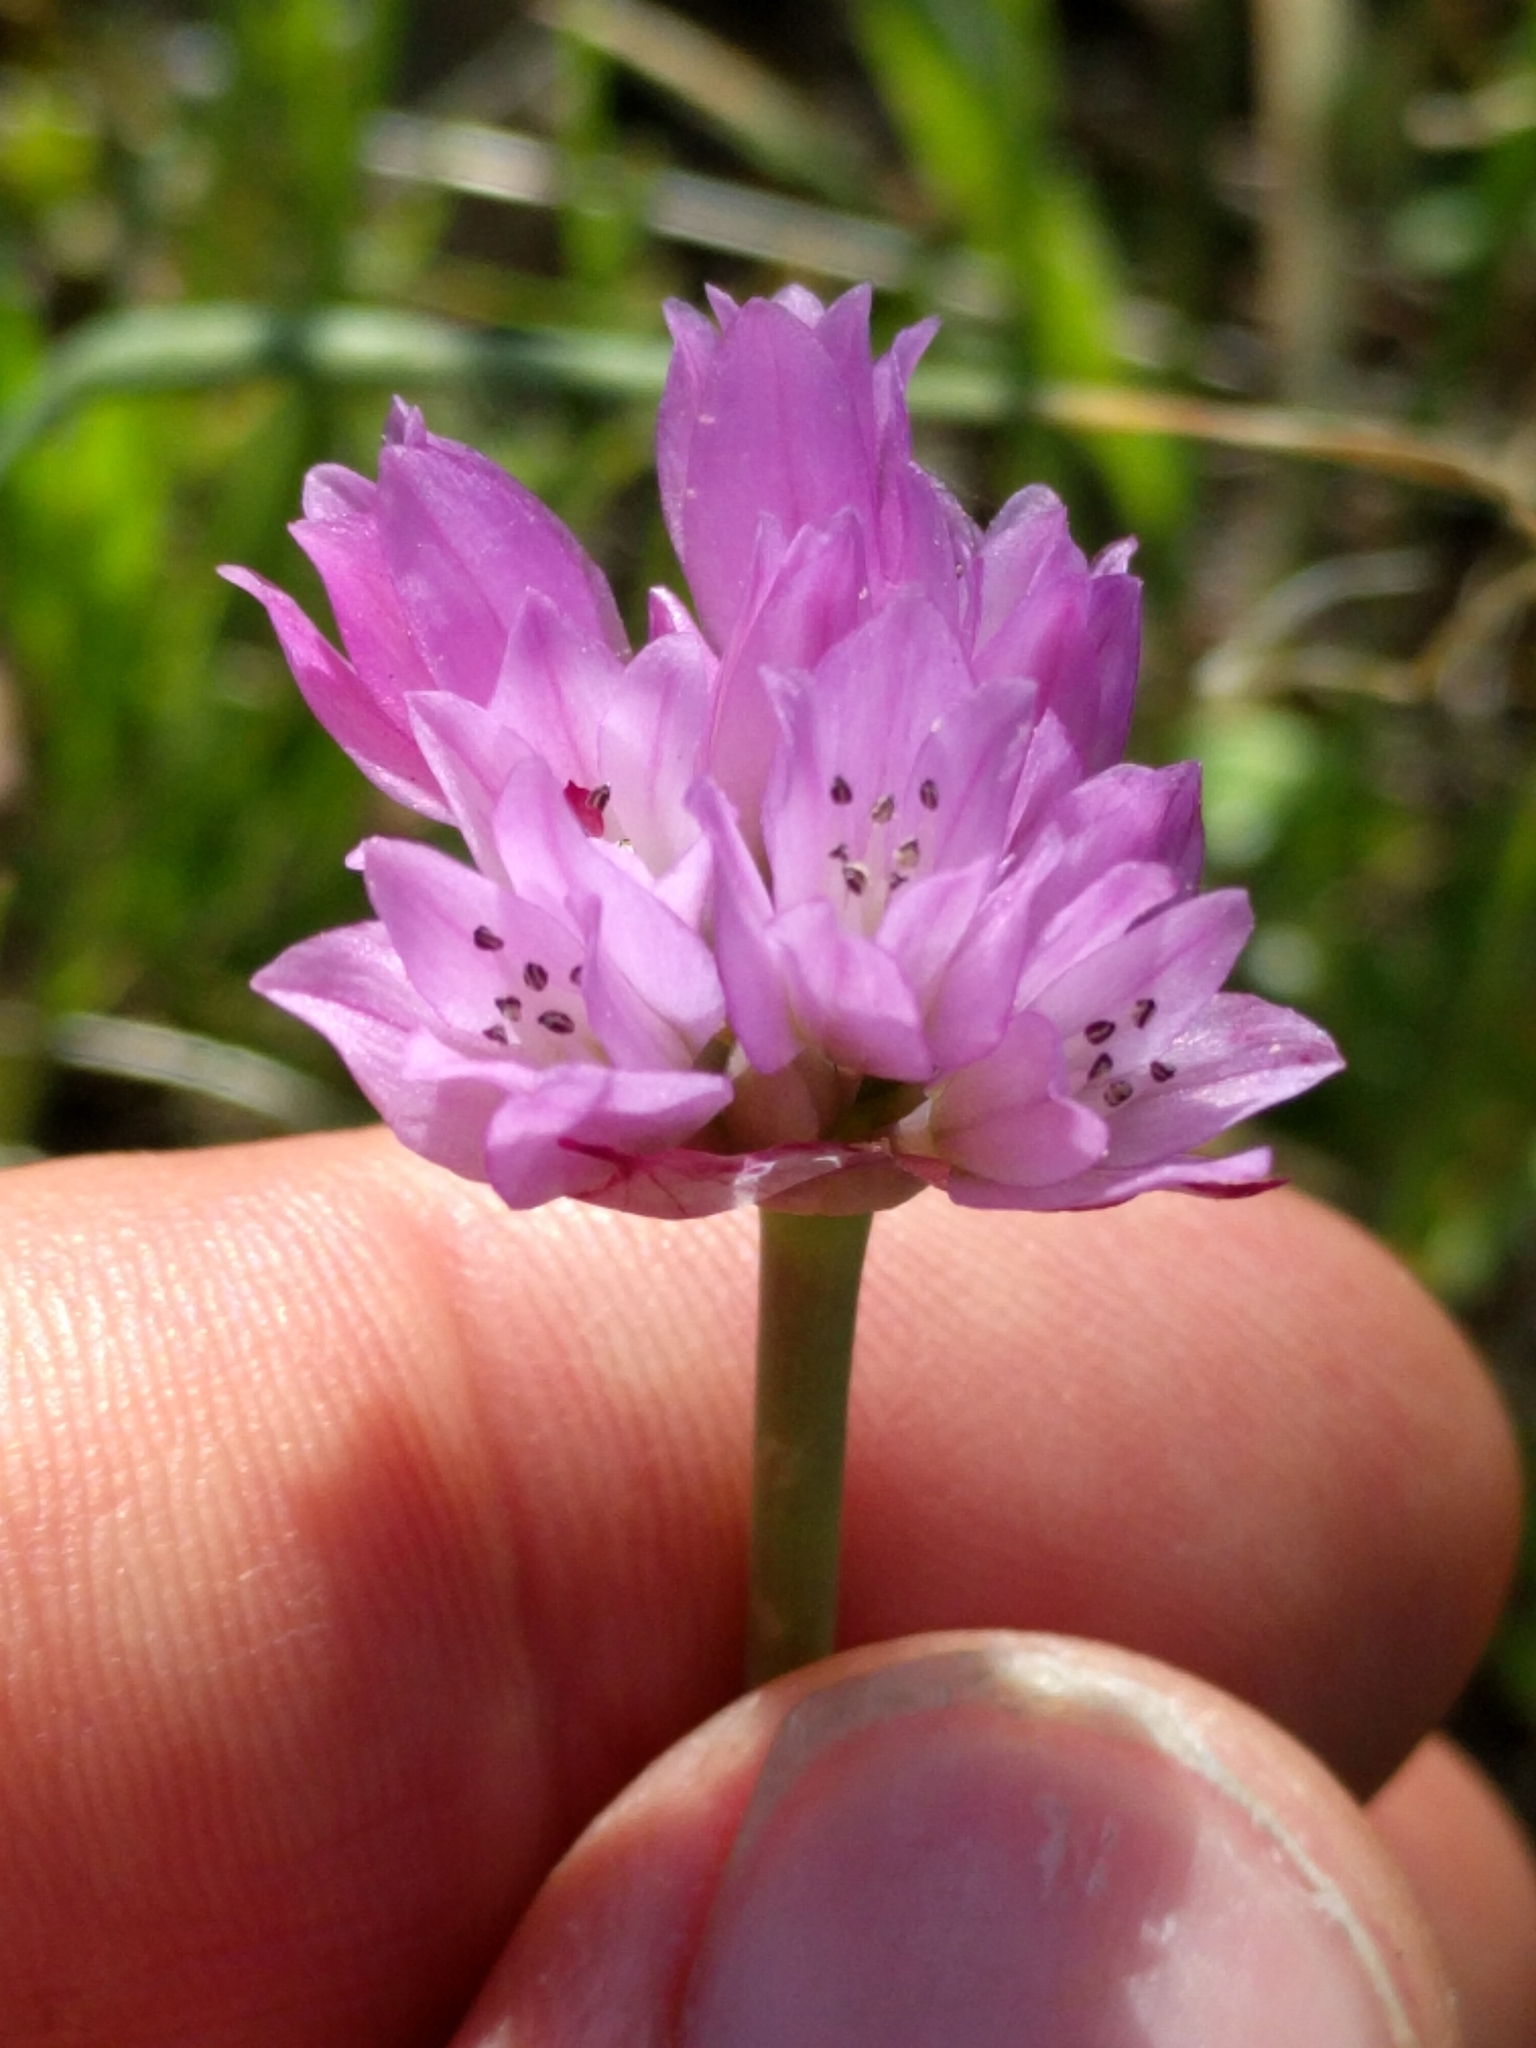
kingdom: Plantae
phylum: Tracheophyta
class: Liliopsida
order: Asparagales
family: Amaryllidaceae
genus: Allium
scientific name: Allium serra
